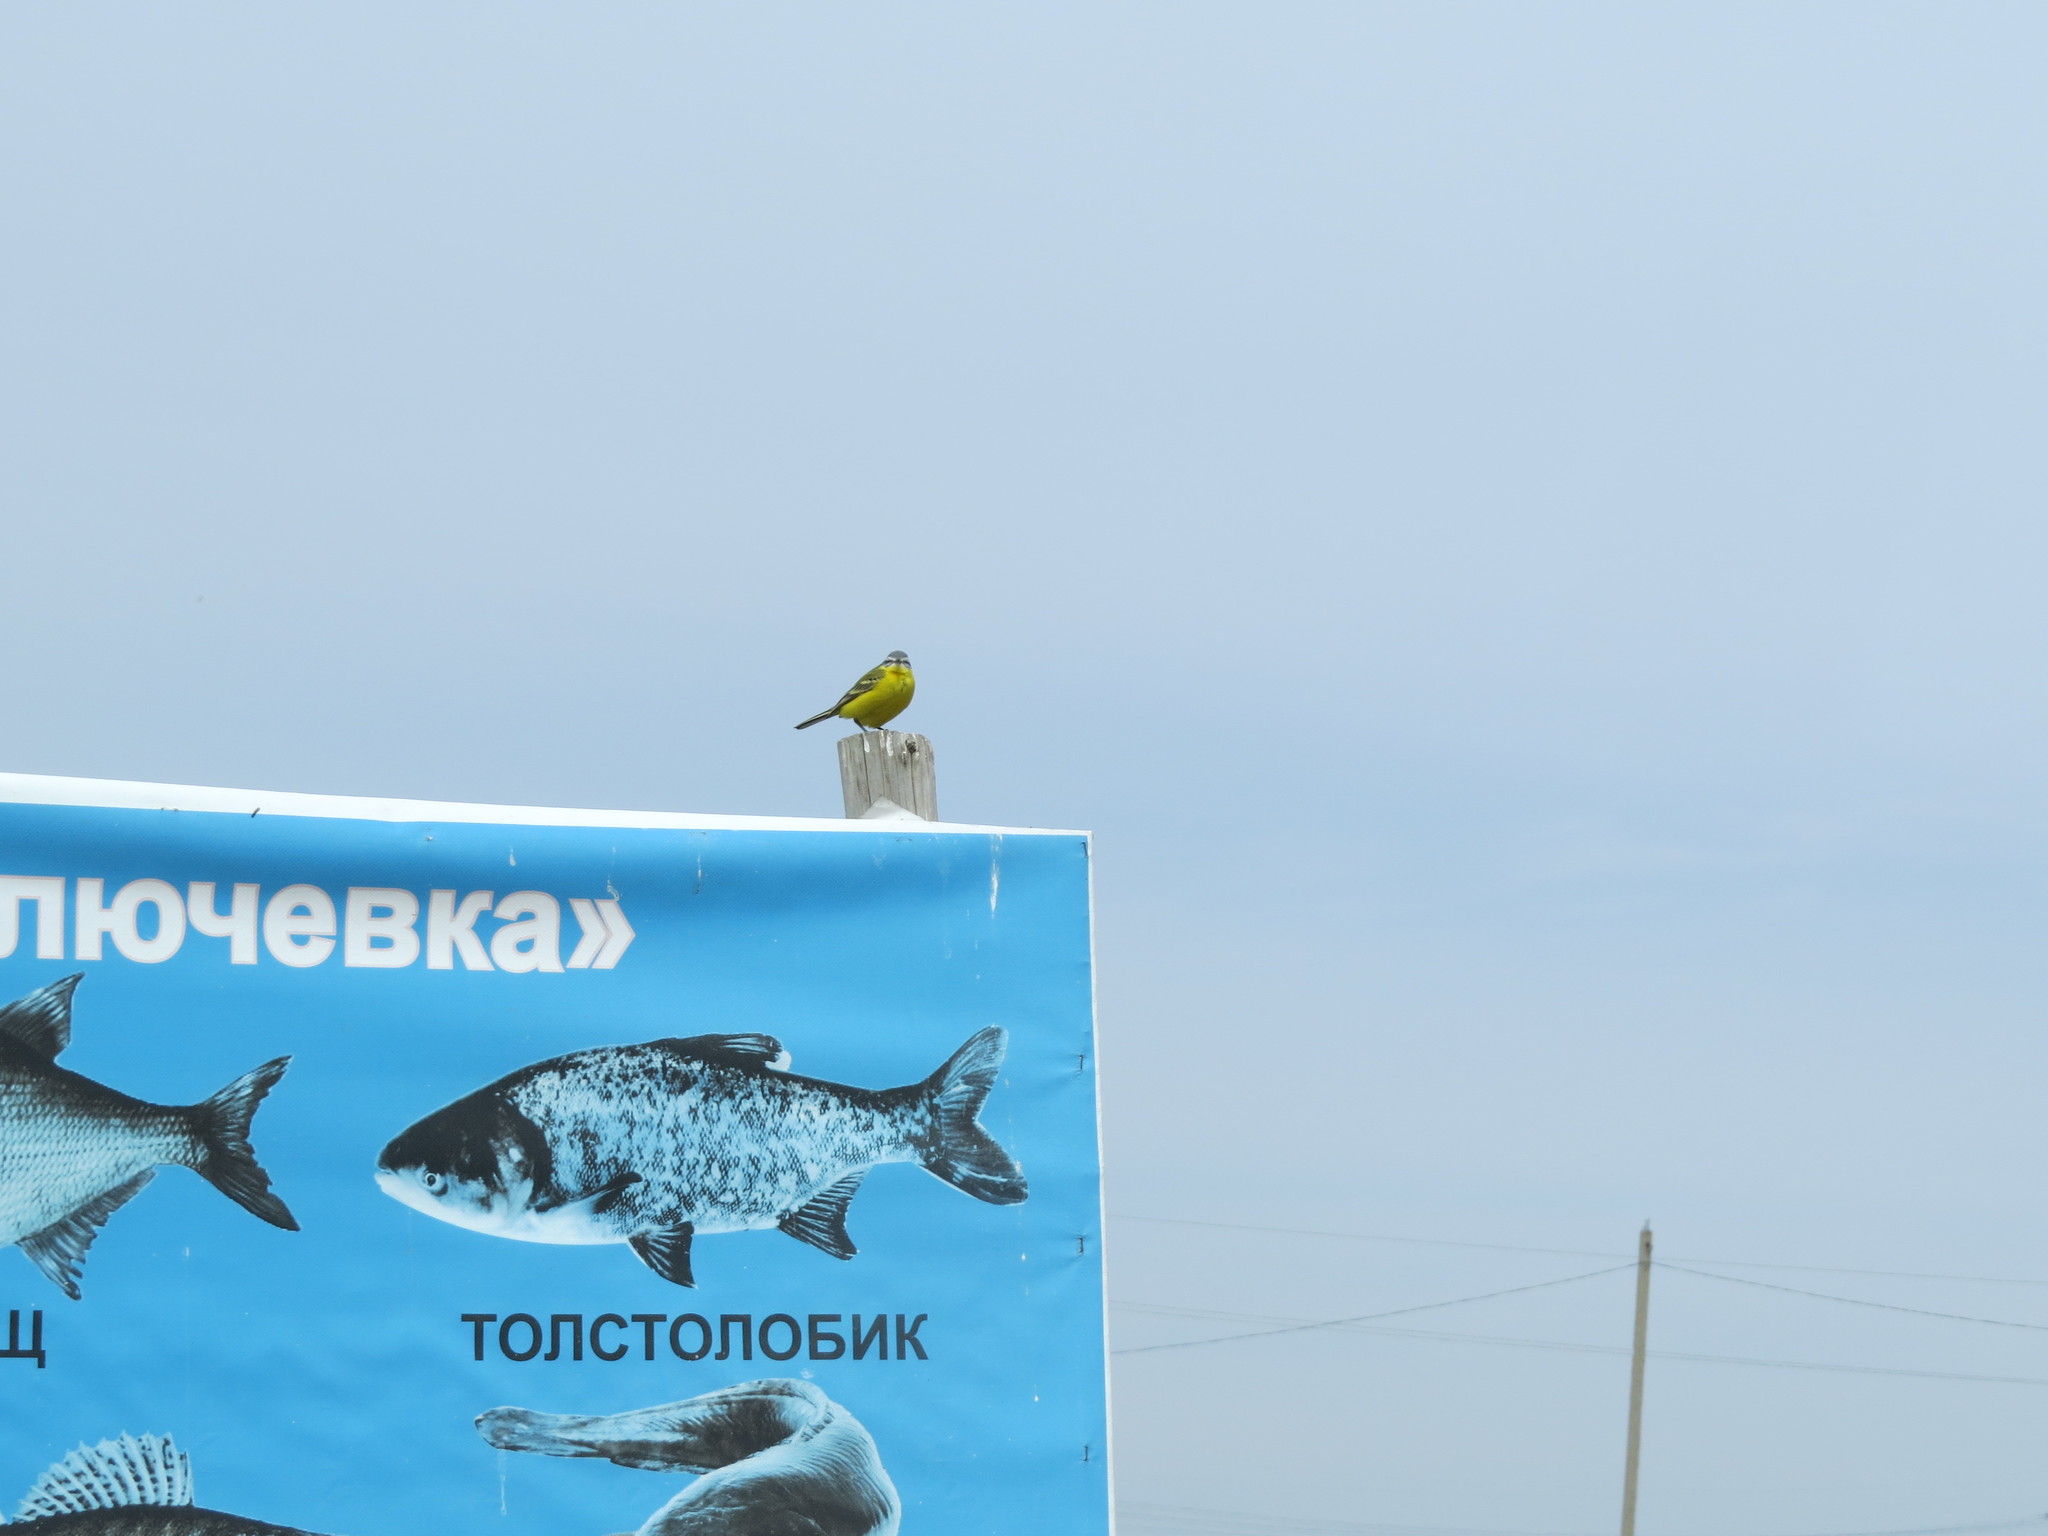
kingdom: Animalia
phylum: Chordata
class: Aves
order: Passeriformes
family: Motacillidae
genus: Motacilla
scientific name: Motacilla flava
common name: Western yellow wagtail
